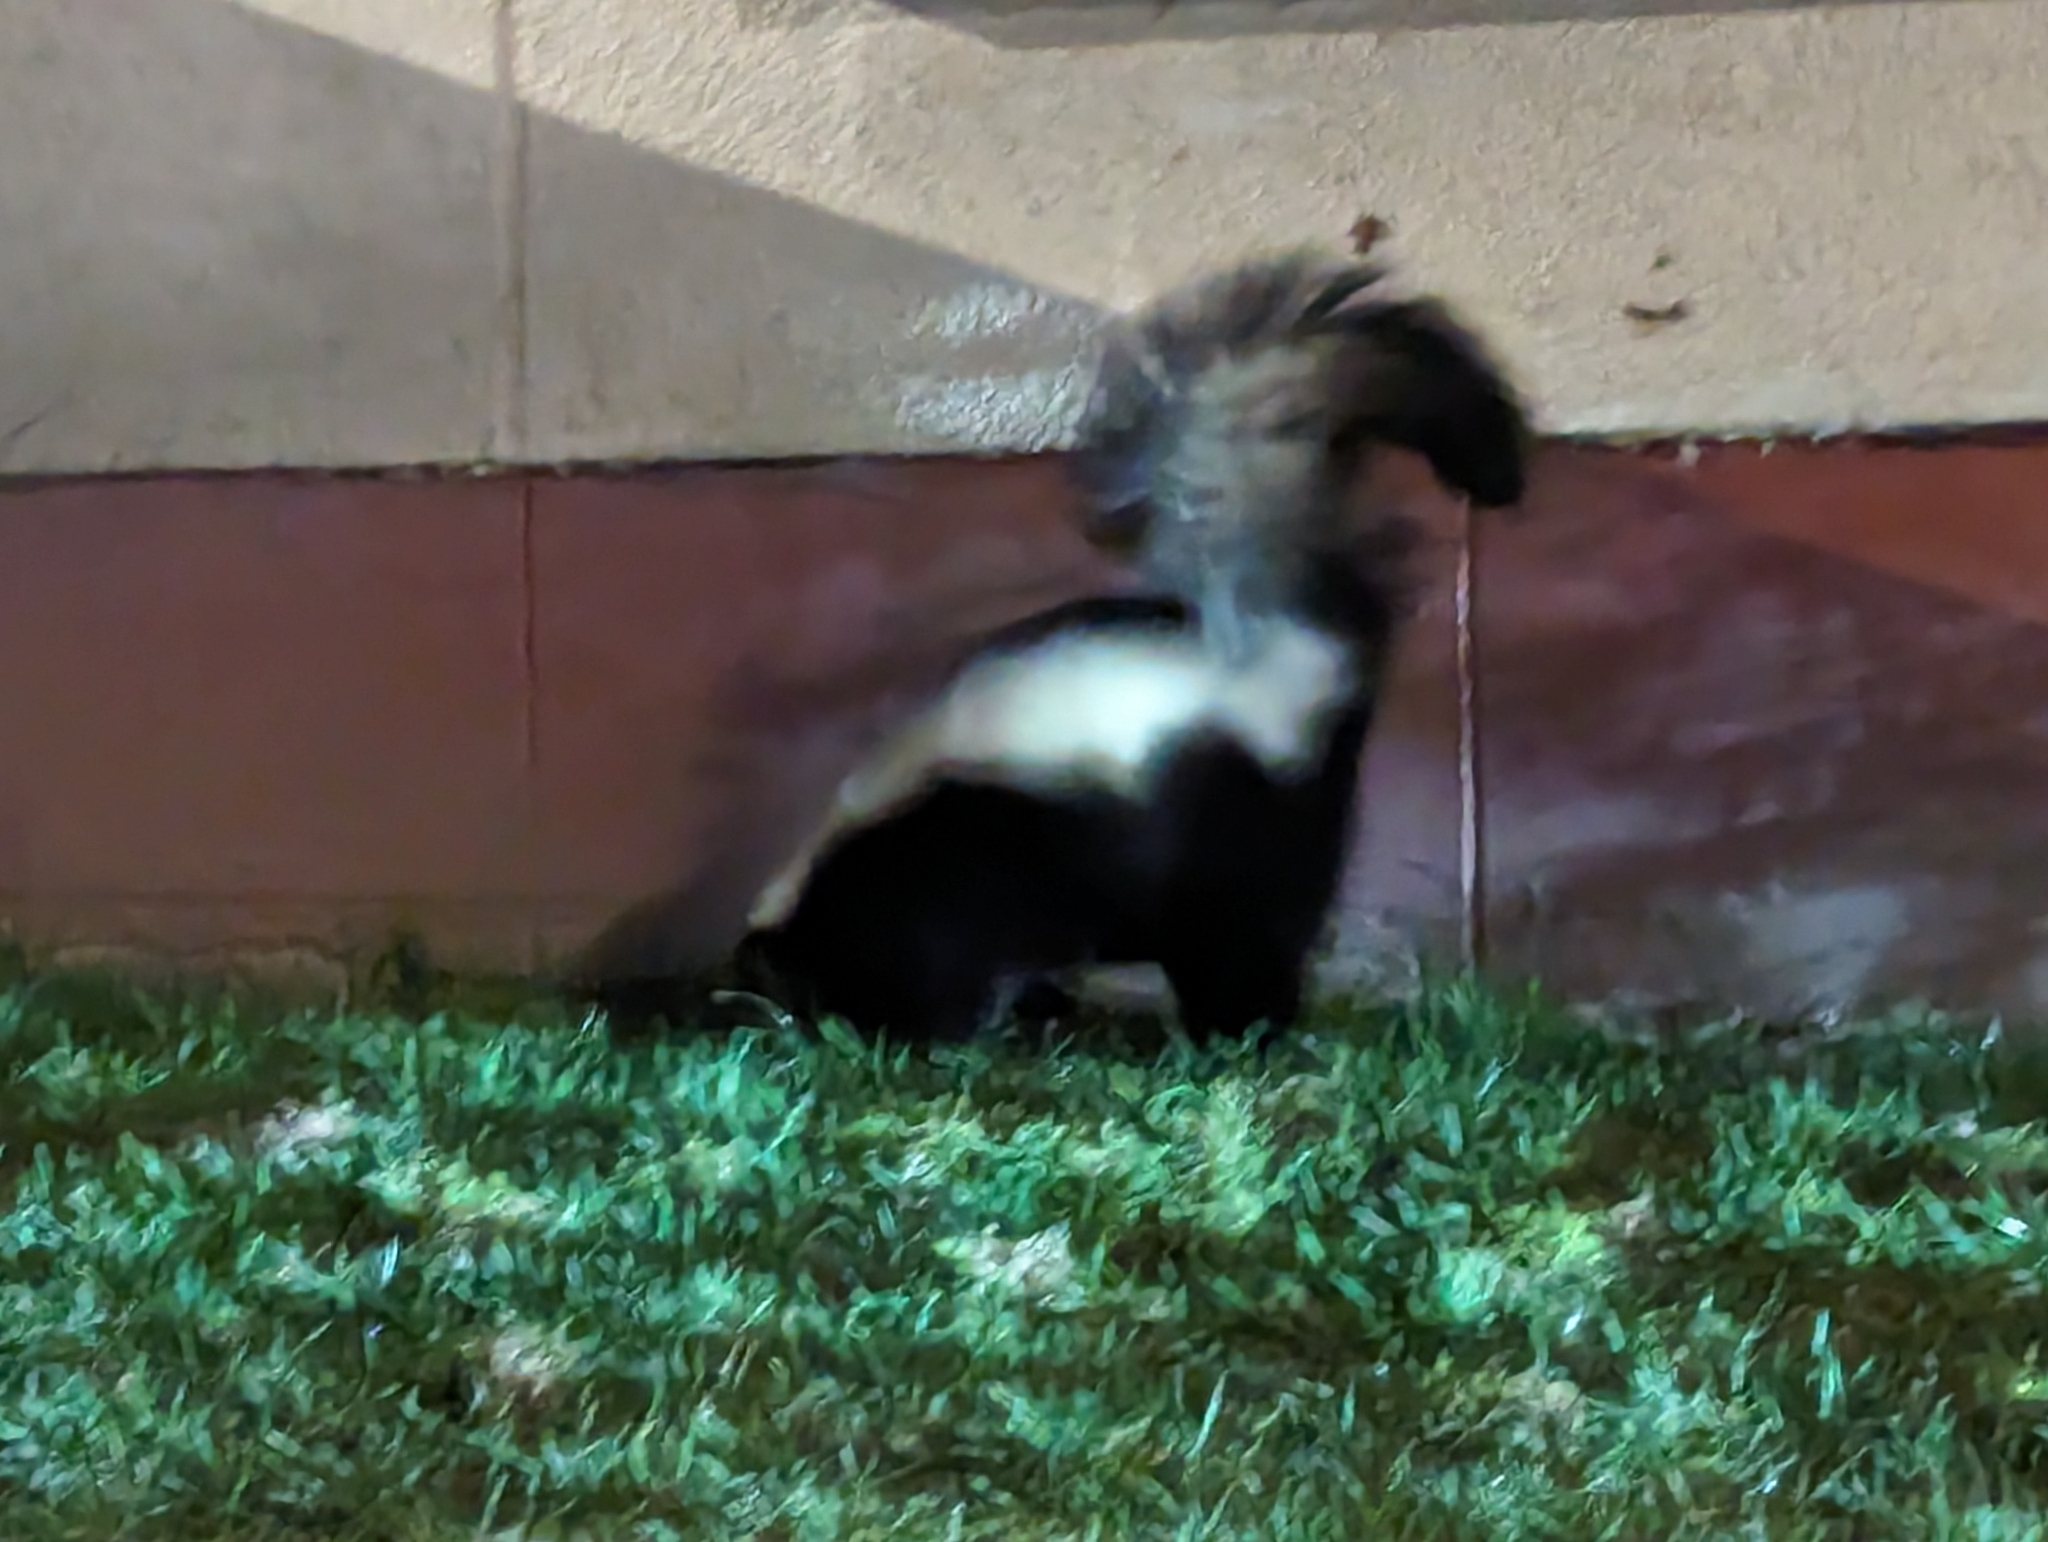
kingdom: Animalia
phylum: Chordata
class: Mammalia
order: Carnivora
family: Mephitidae
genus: Mephitis
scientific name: Mephitis mephitis
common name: Striped skunk
